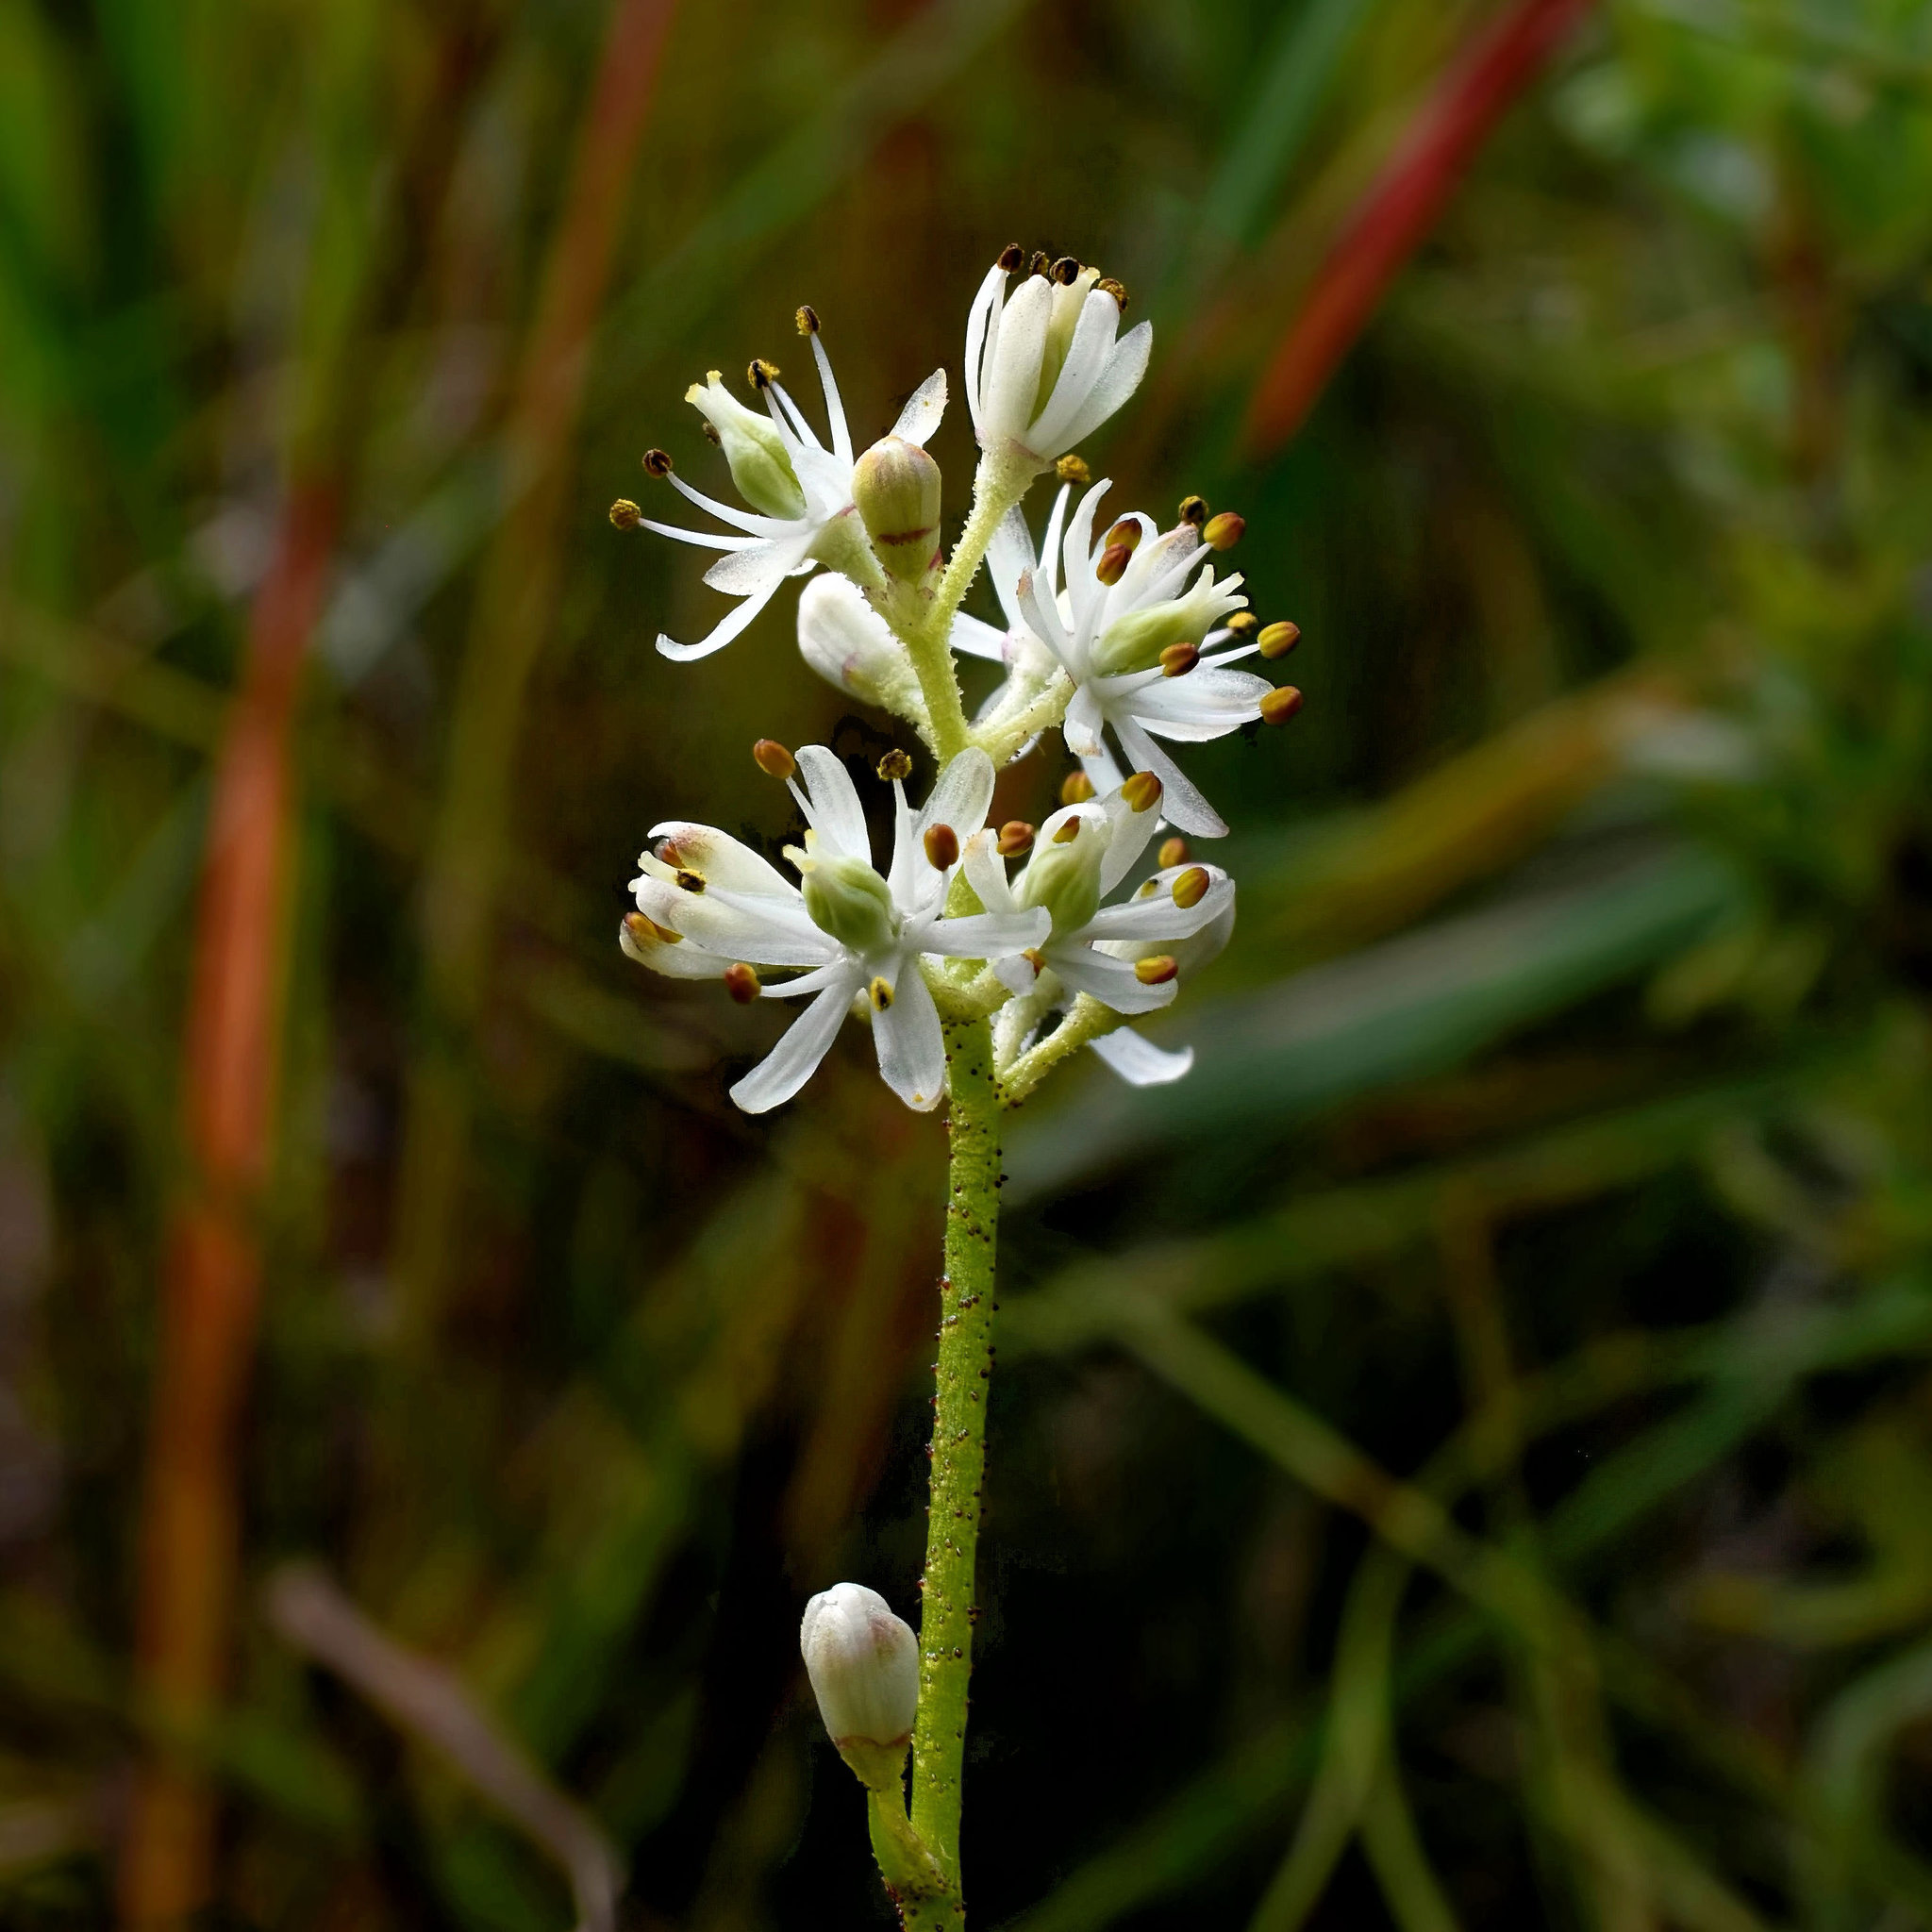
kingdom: Plantae
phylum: Tracheophyta
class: Liliopsida
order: Alismatales
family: Tofieldiaceae
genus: Triantha
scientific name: Triantha glutinosa
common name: Glutinous tofieldia
